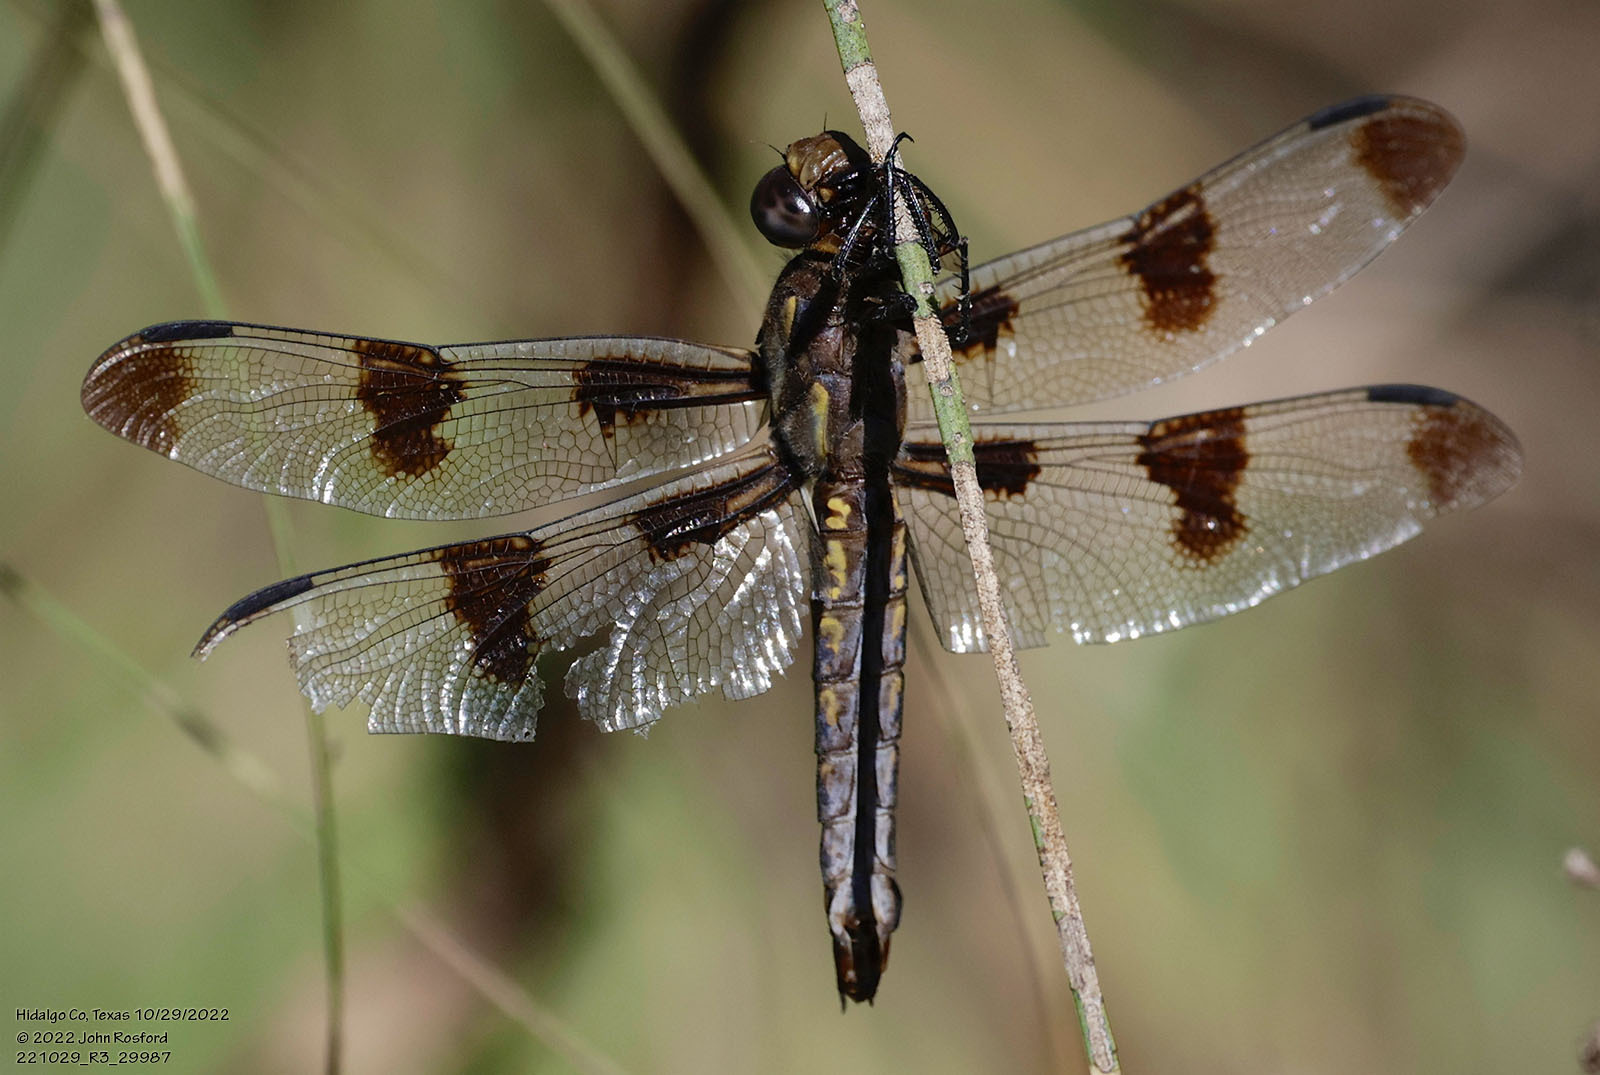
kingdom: Animalia
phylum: Arthropoda
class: Insecta
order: Odonata
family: Libellulidae
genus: Libellula
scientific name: Libellula pulchella
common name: Twelve-spotted skimmer
